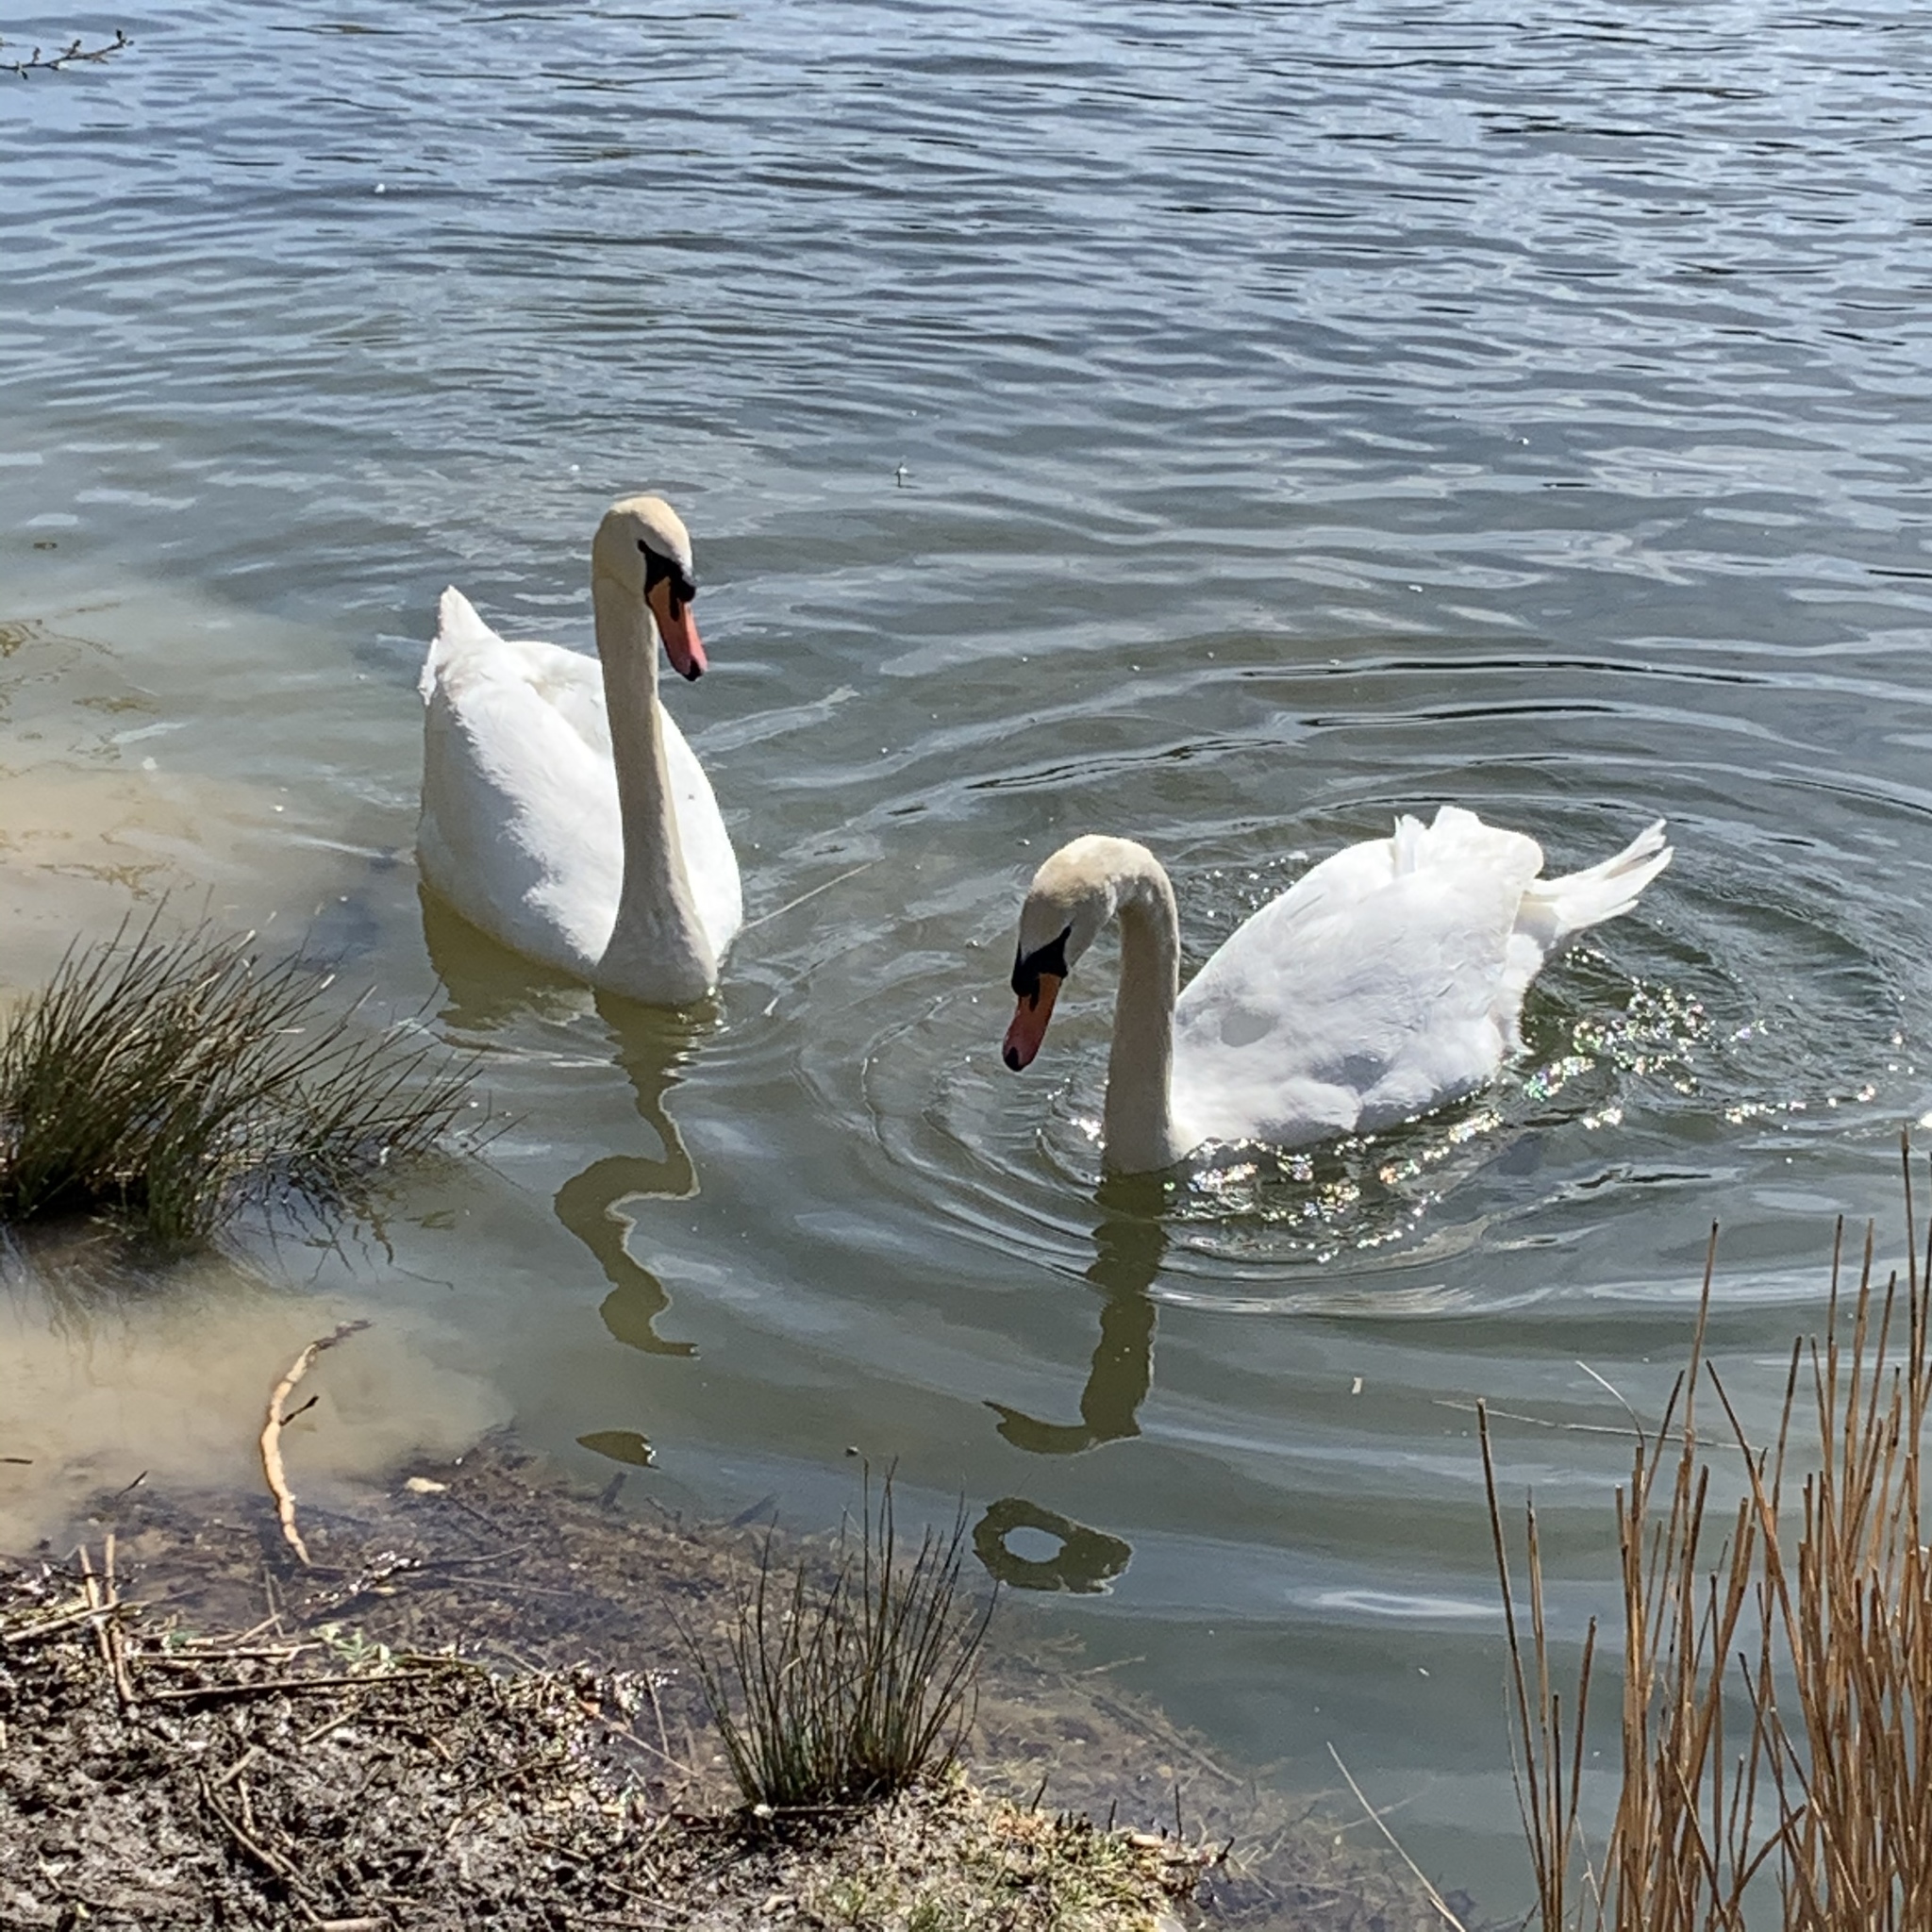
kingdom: Animalia
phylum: Chordata
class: Aves
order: Anseriformes
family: Anatidae
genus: Cygnus
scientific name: Cygnus olor
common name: Mute swan
